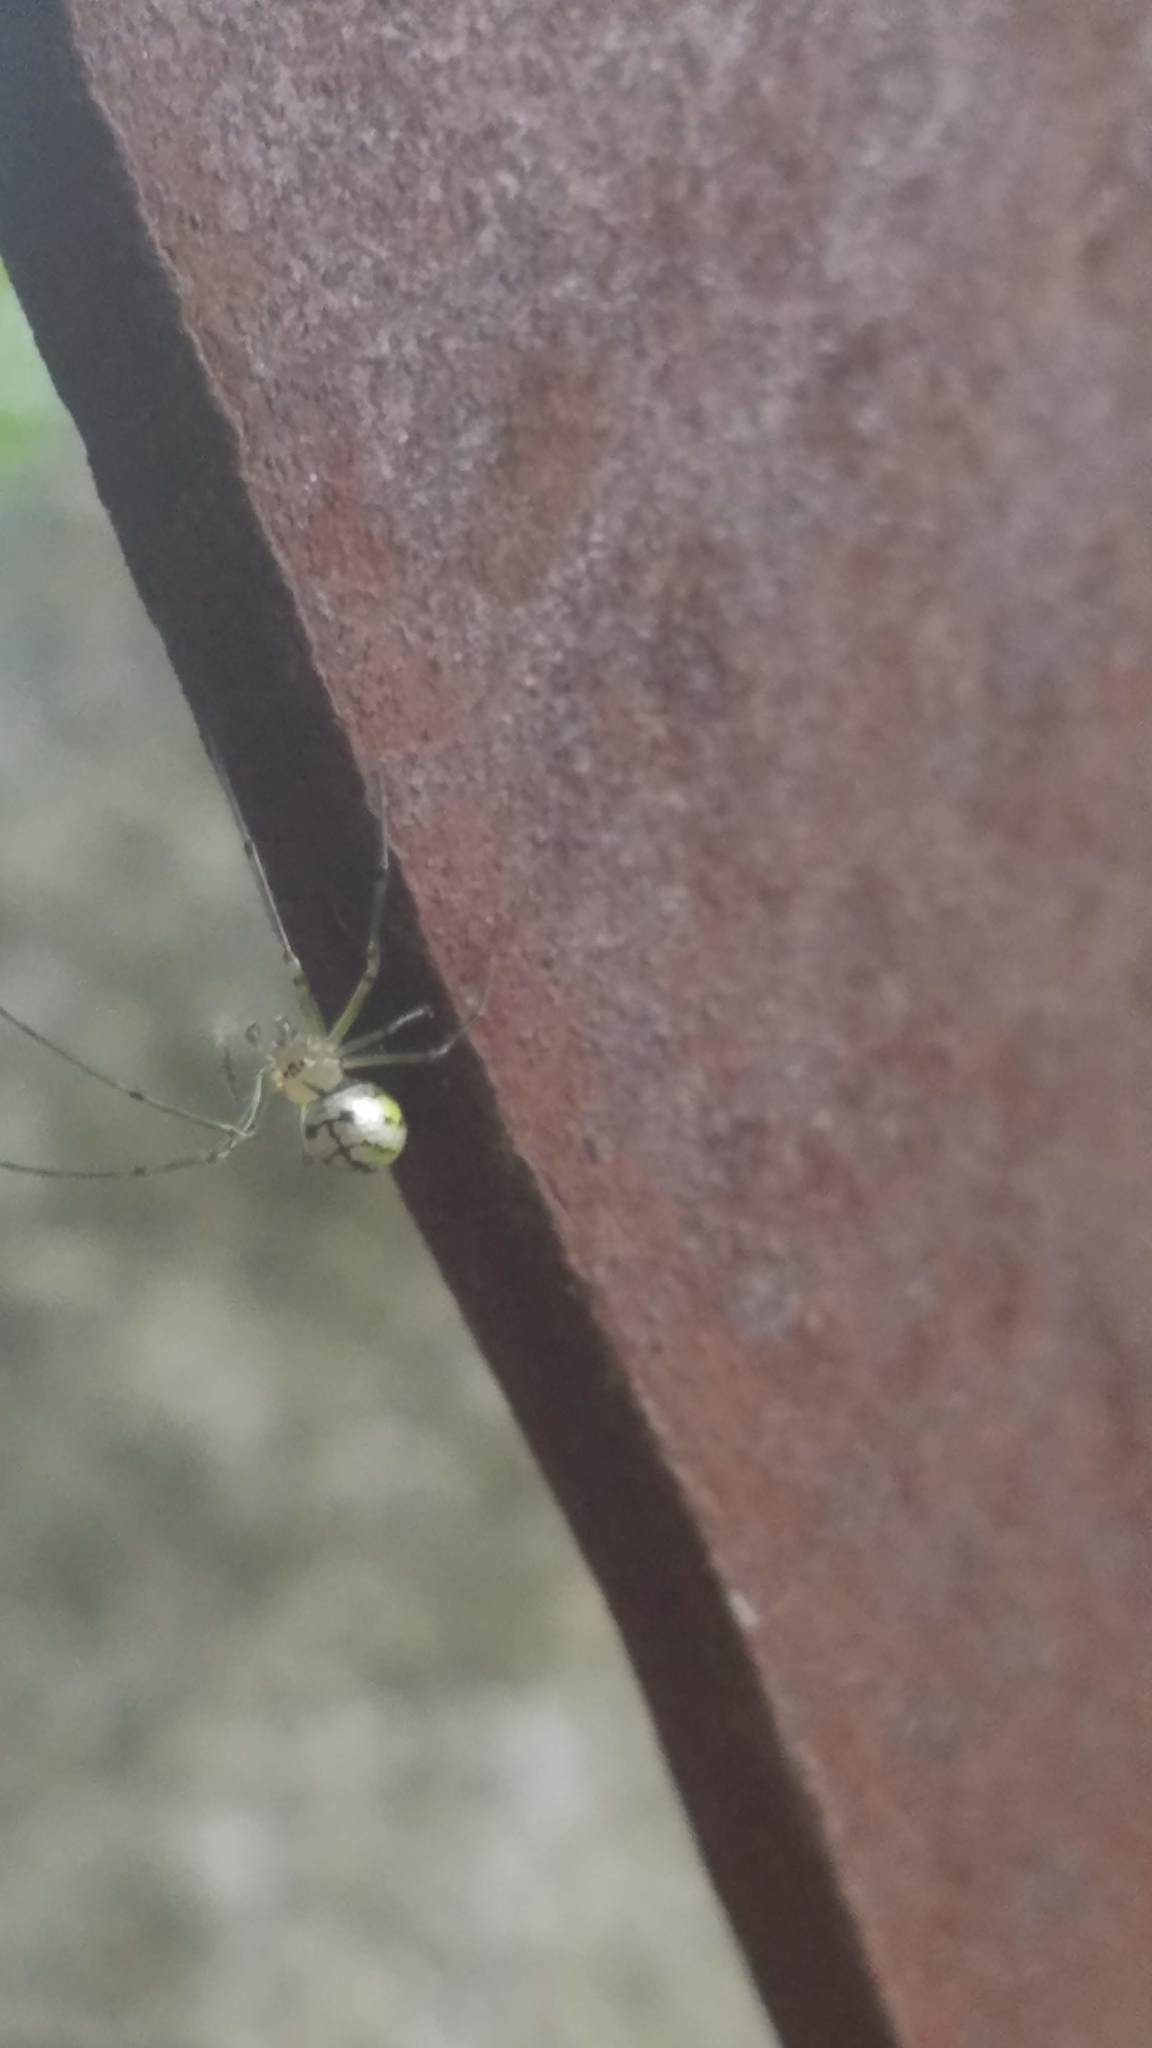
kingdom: Animalia
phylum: Arthropoda
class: Arachnida
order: Araneae
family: Tetragnathidae
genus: Leucauge
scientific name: Leucauge venusta
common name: Longjawed orb weavers
